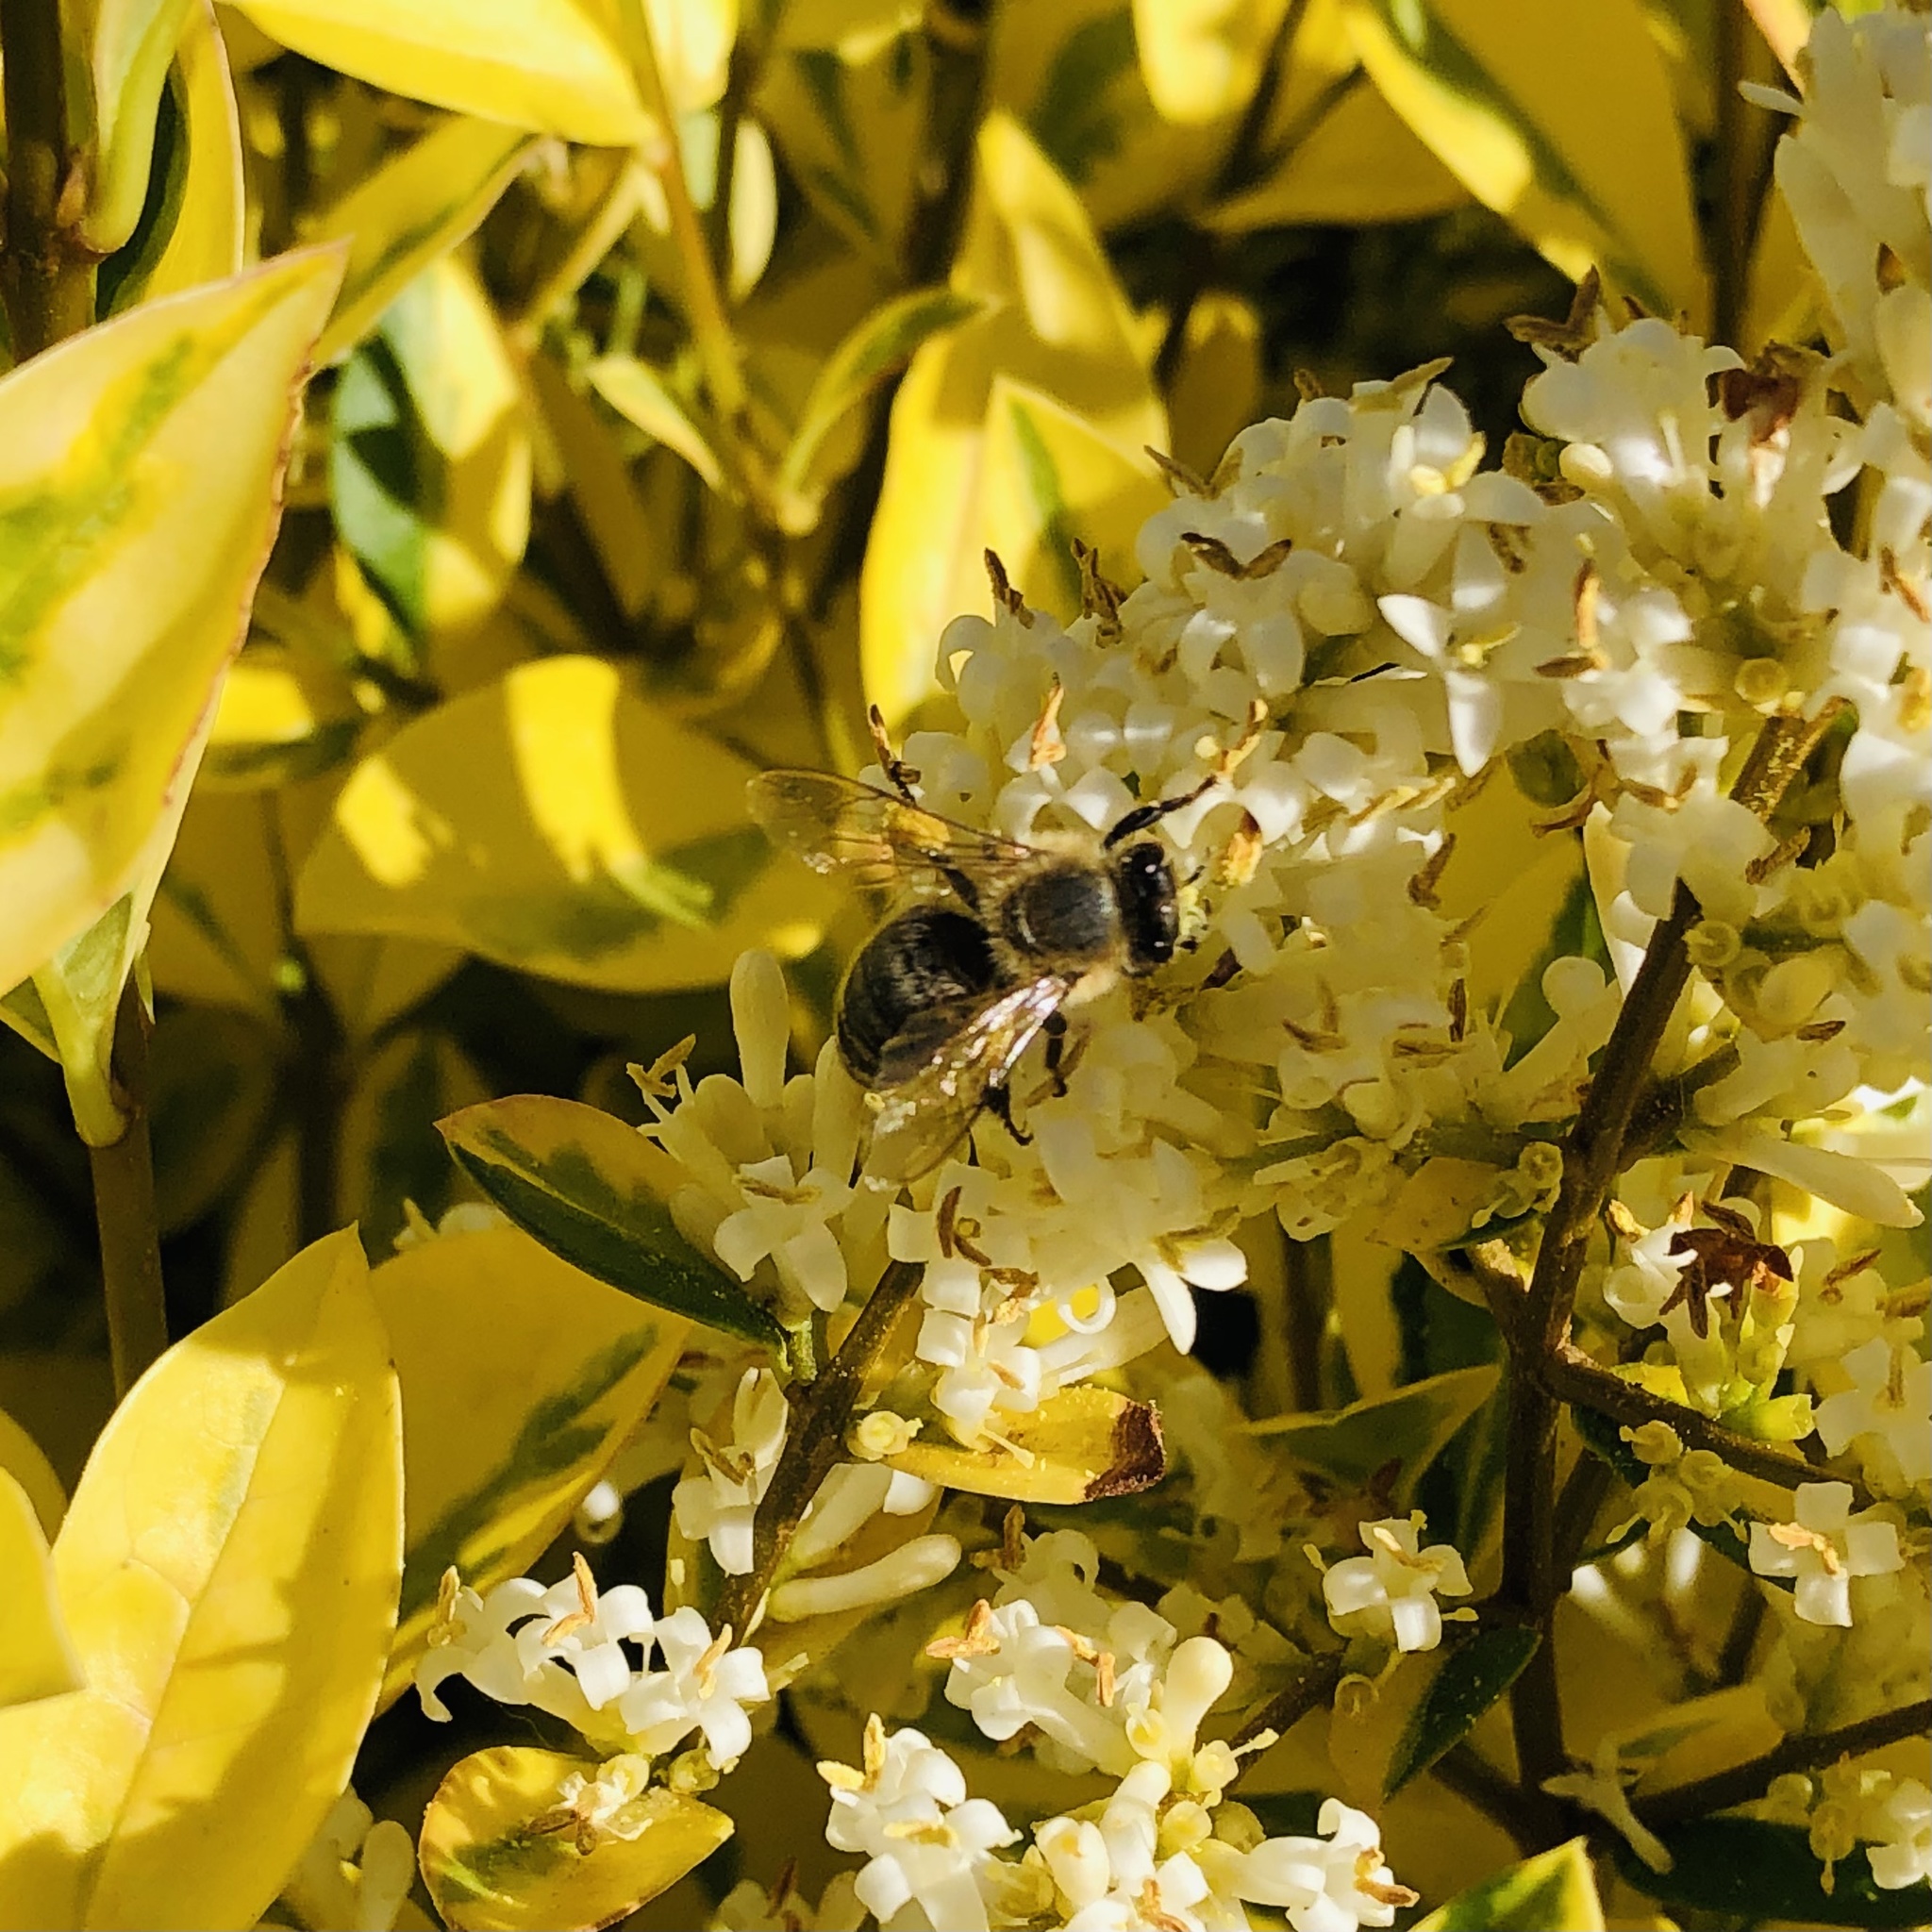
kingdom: Animalia
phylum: Arthropoda
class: Insecta
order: Hymenoptera
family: Apidae
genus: Apis
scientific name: Apis mellifera
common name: Honey bee
